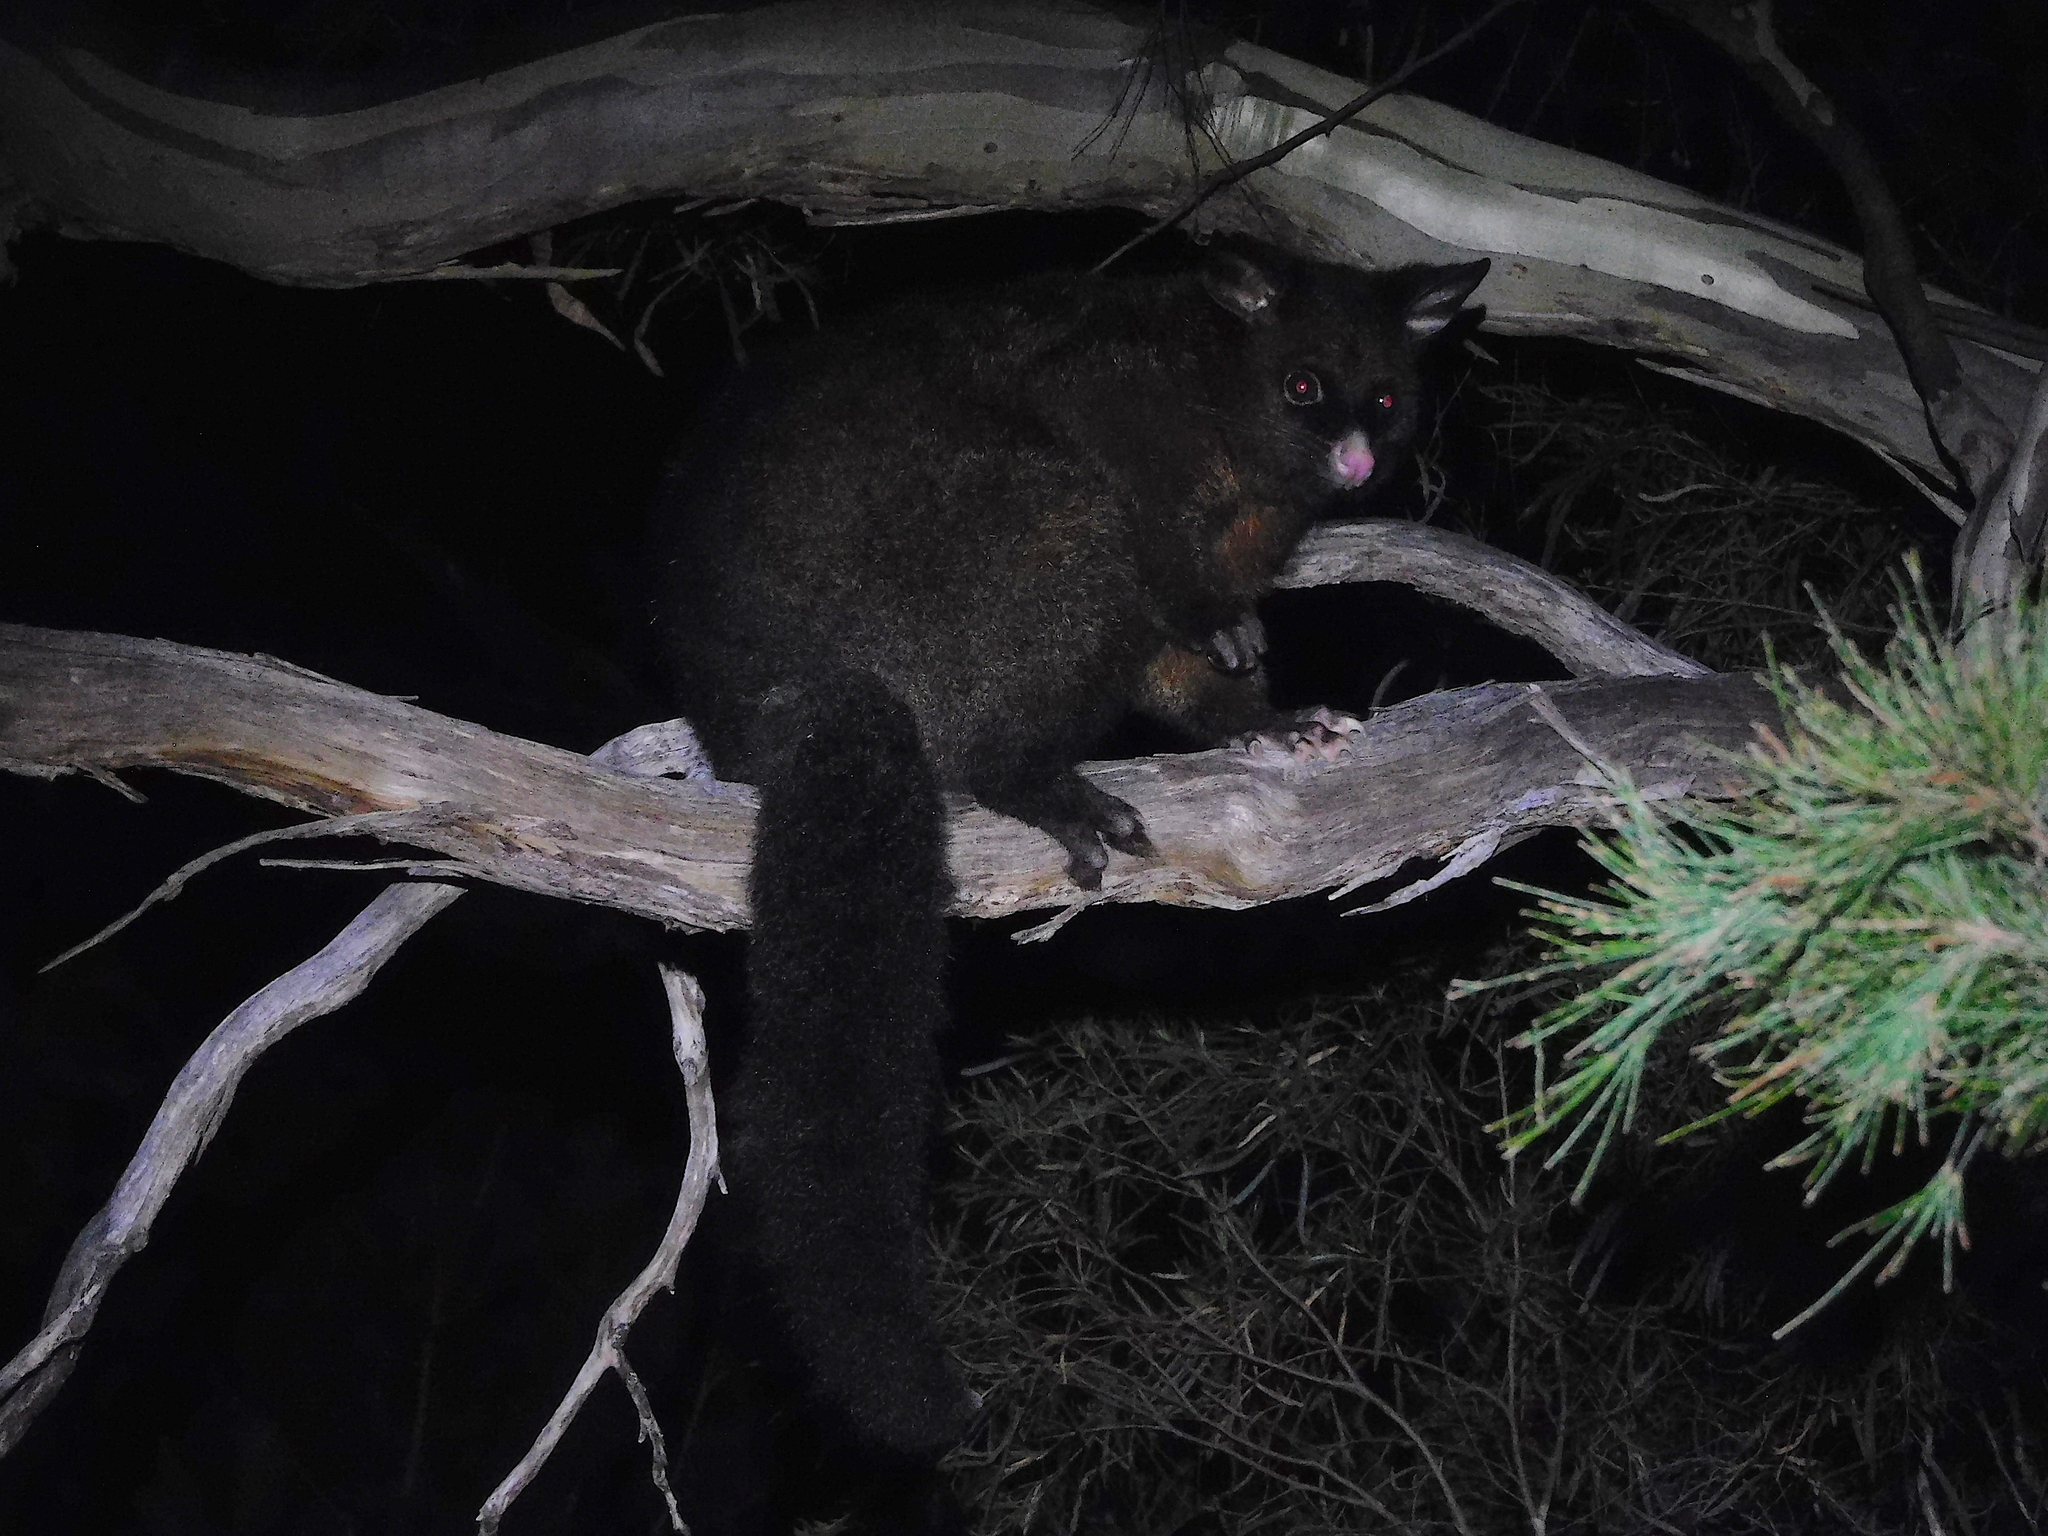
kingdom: Animalia
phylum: Chordata
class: Mammalia
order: Diprotodontia
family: Phalangeridae
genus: Trichosurus
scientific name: Trichosurus vulpecula
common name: Common brushtail
